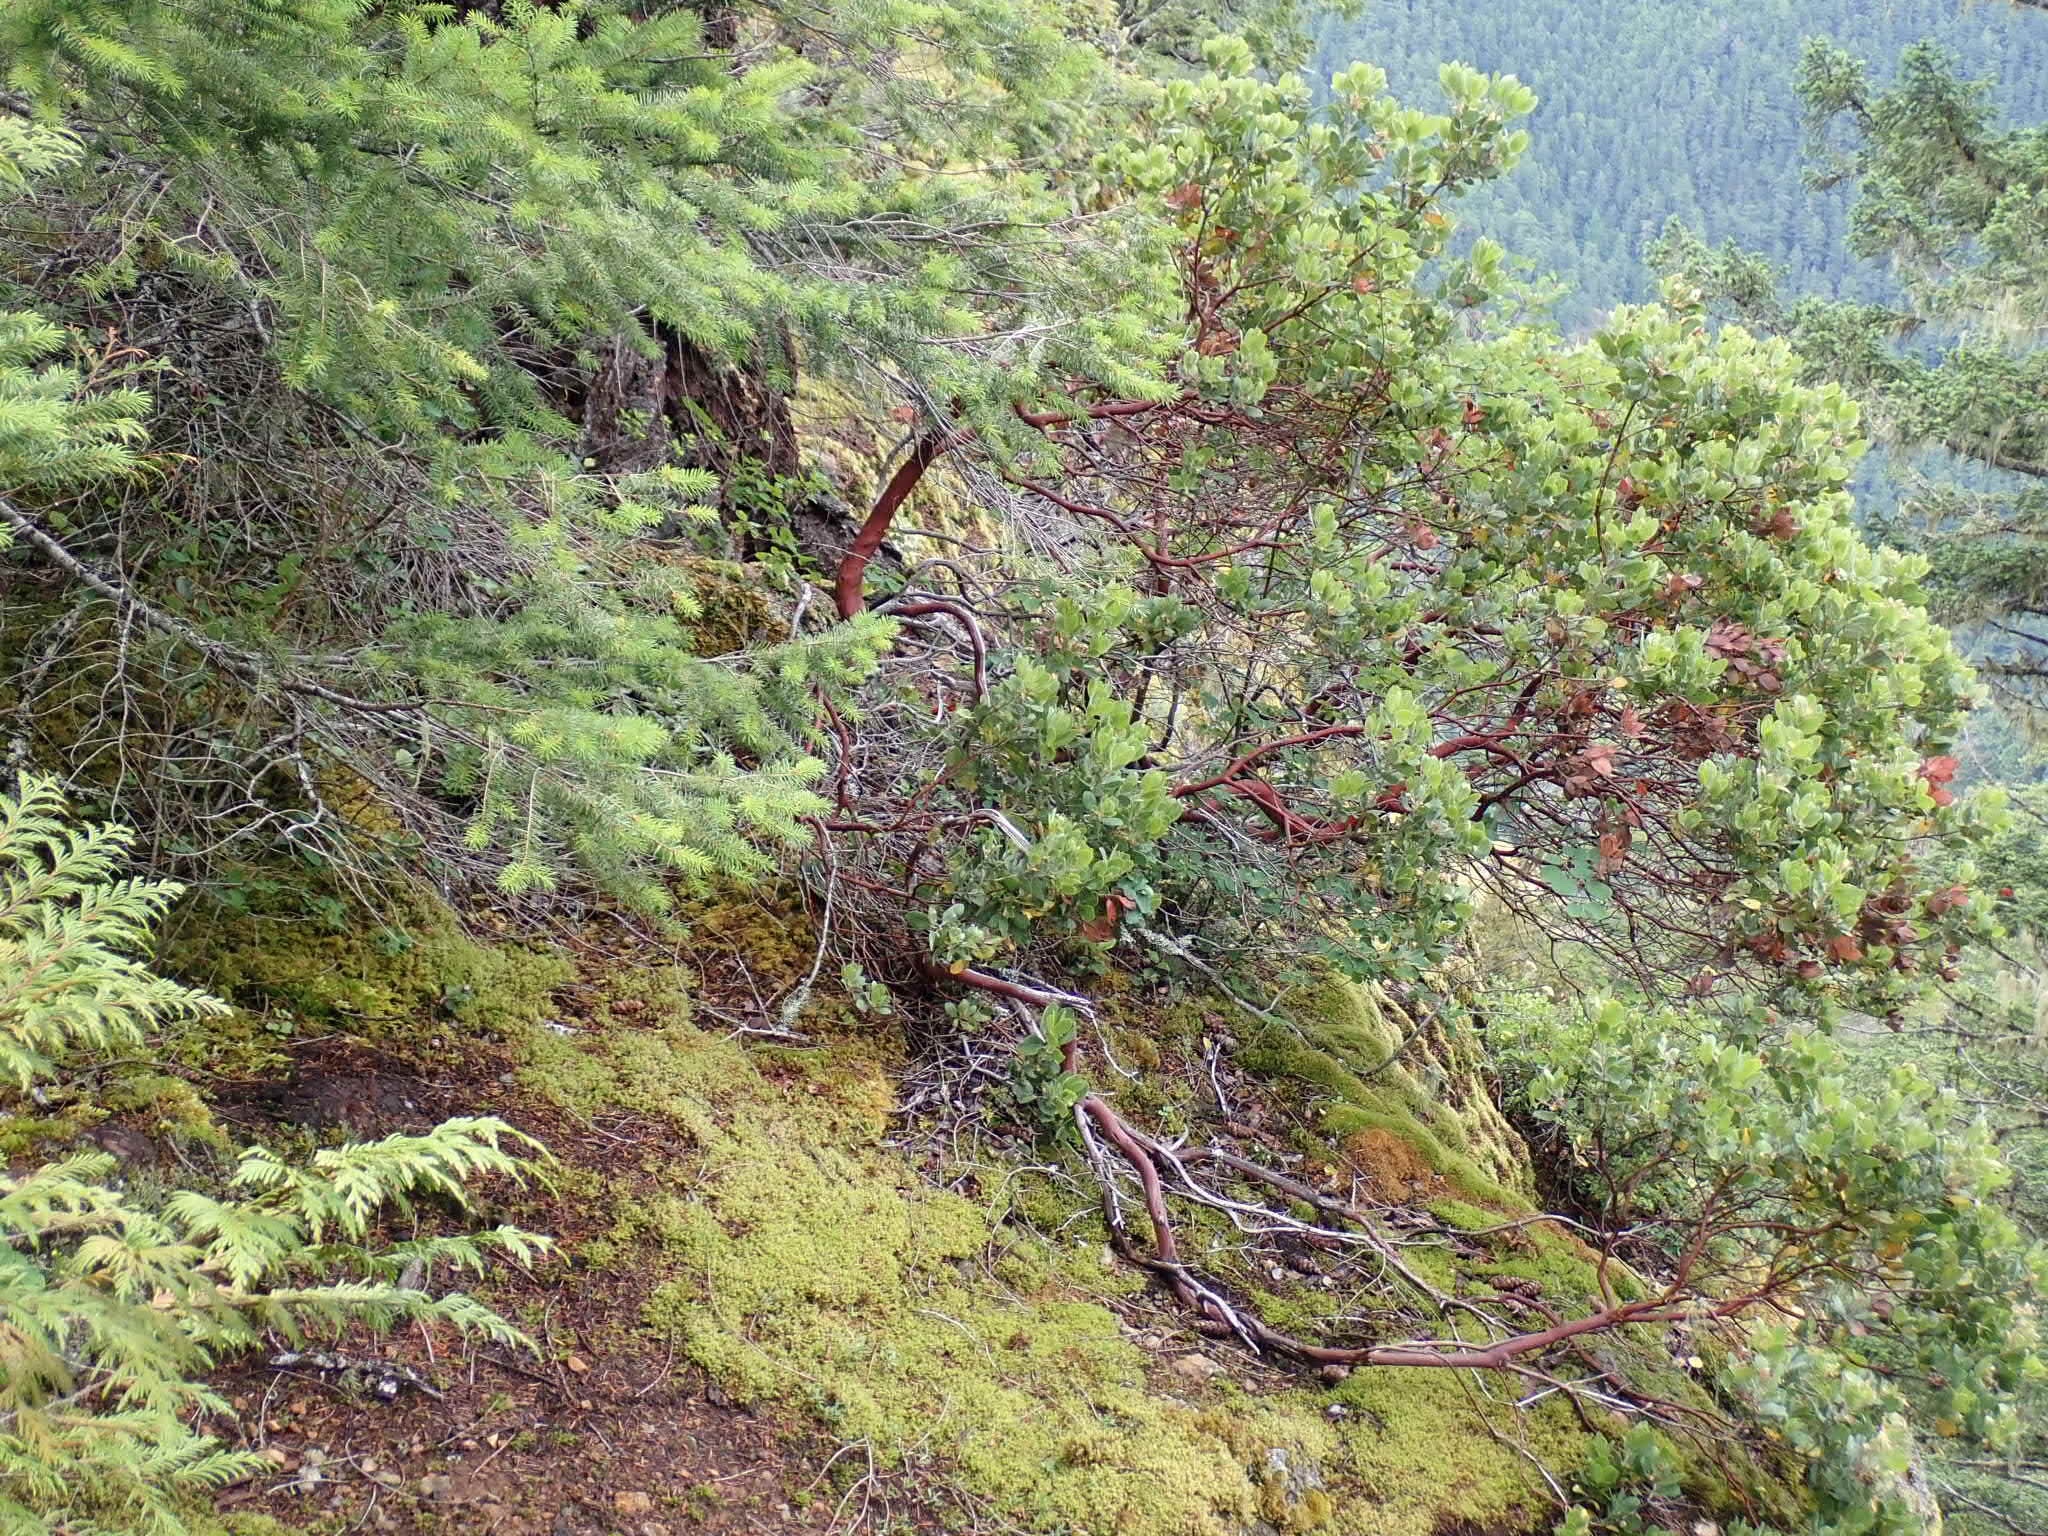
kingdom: Plantae
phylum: Tracheophyta
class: Magnoliopsida
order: Ericales
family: Ericaceae
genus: Arctostaphylos
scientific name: Arctostaphylos columbiana
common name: Bristly bearberry
